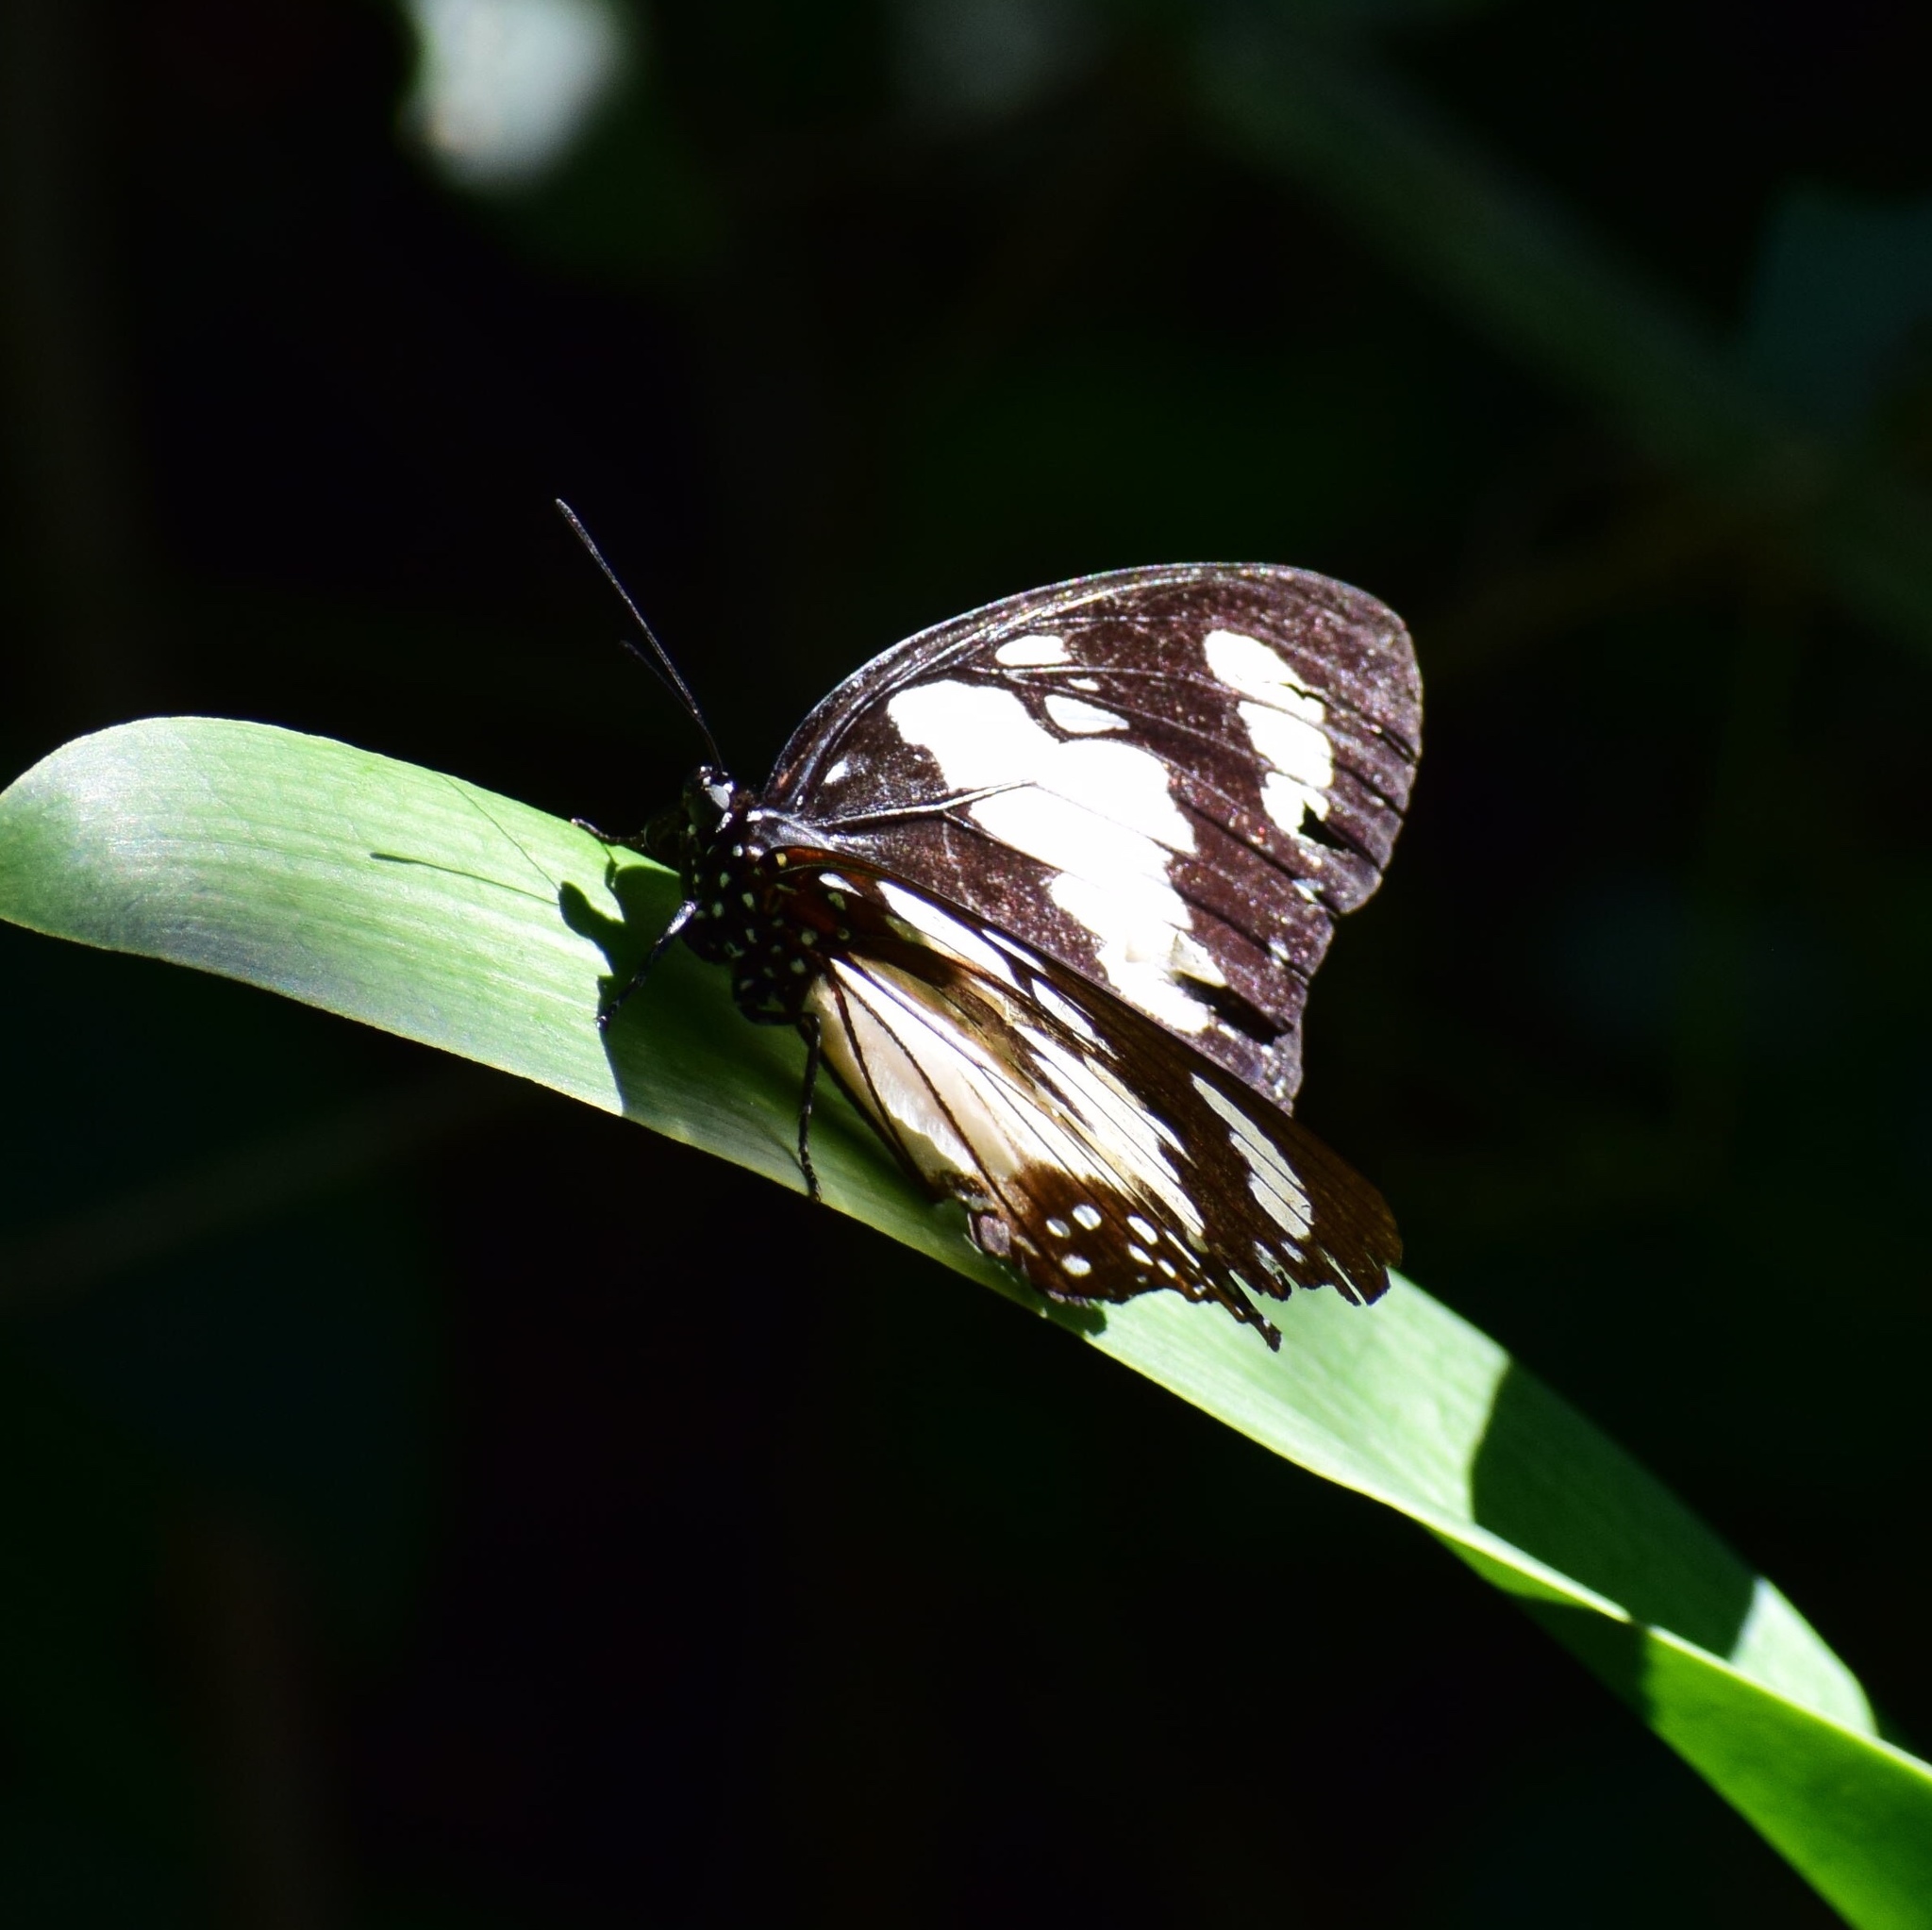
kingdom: Animalia
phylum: Arthropoda
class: Insecta
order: Lepidoptera
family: Nymphalidae
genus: Charaxes
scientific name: Charaxes wakefieldi
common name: Forest queen
